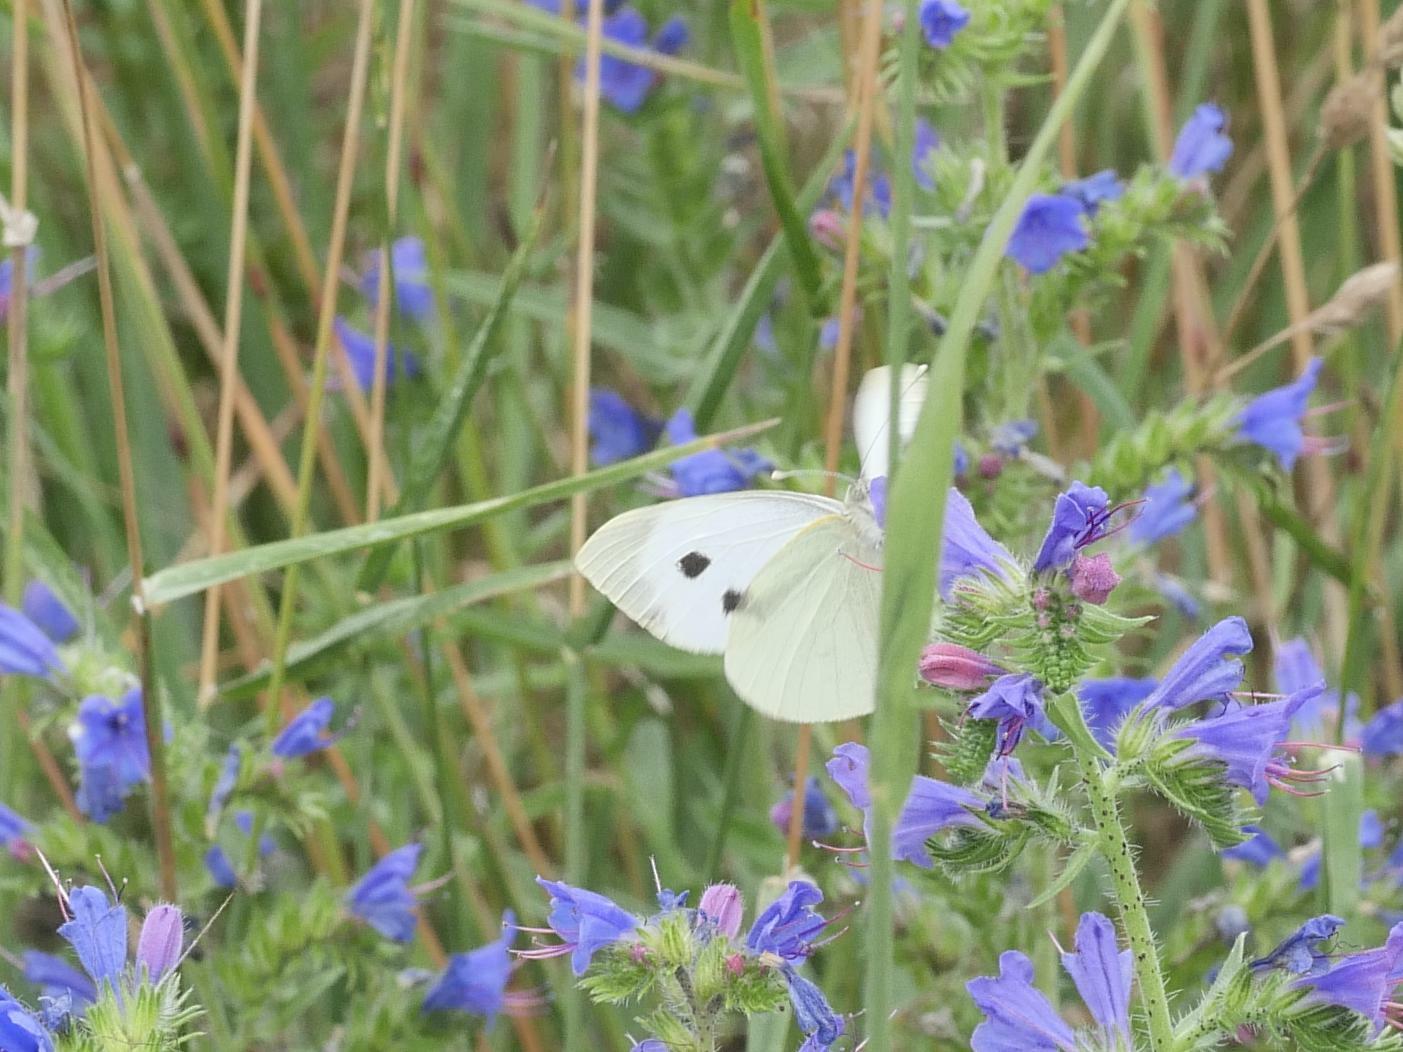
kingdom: Animalia
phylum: Arthropoda
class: Insecta
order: Lepidoptera
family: Pieridae
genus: Pieris
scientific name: Pieris brassicae
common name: Large white
